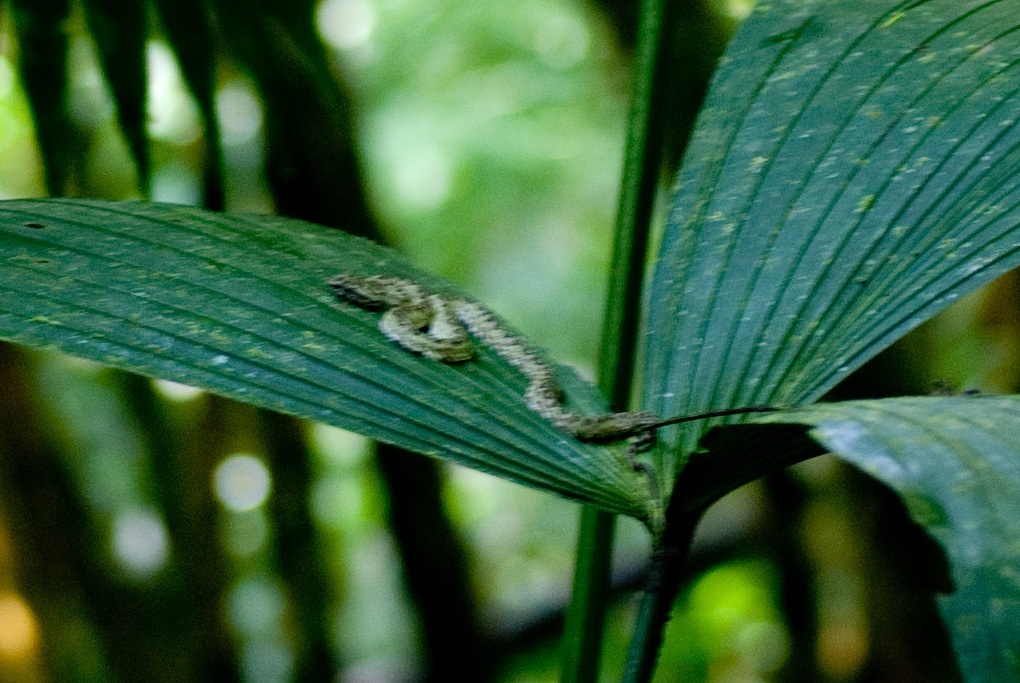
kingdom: Animalia
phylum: Chordata
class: Squamata
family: Viperidae
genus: Bothriechis
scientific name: Bothriechis schlegelii
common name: Eyelash viper
